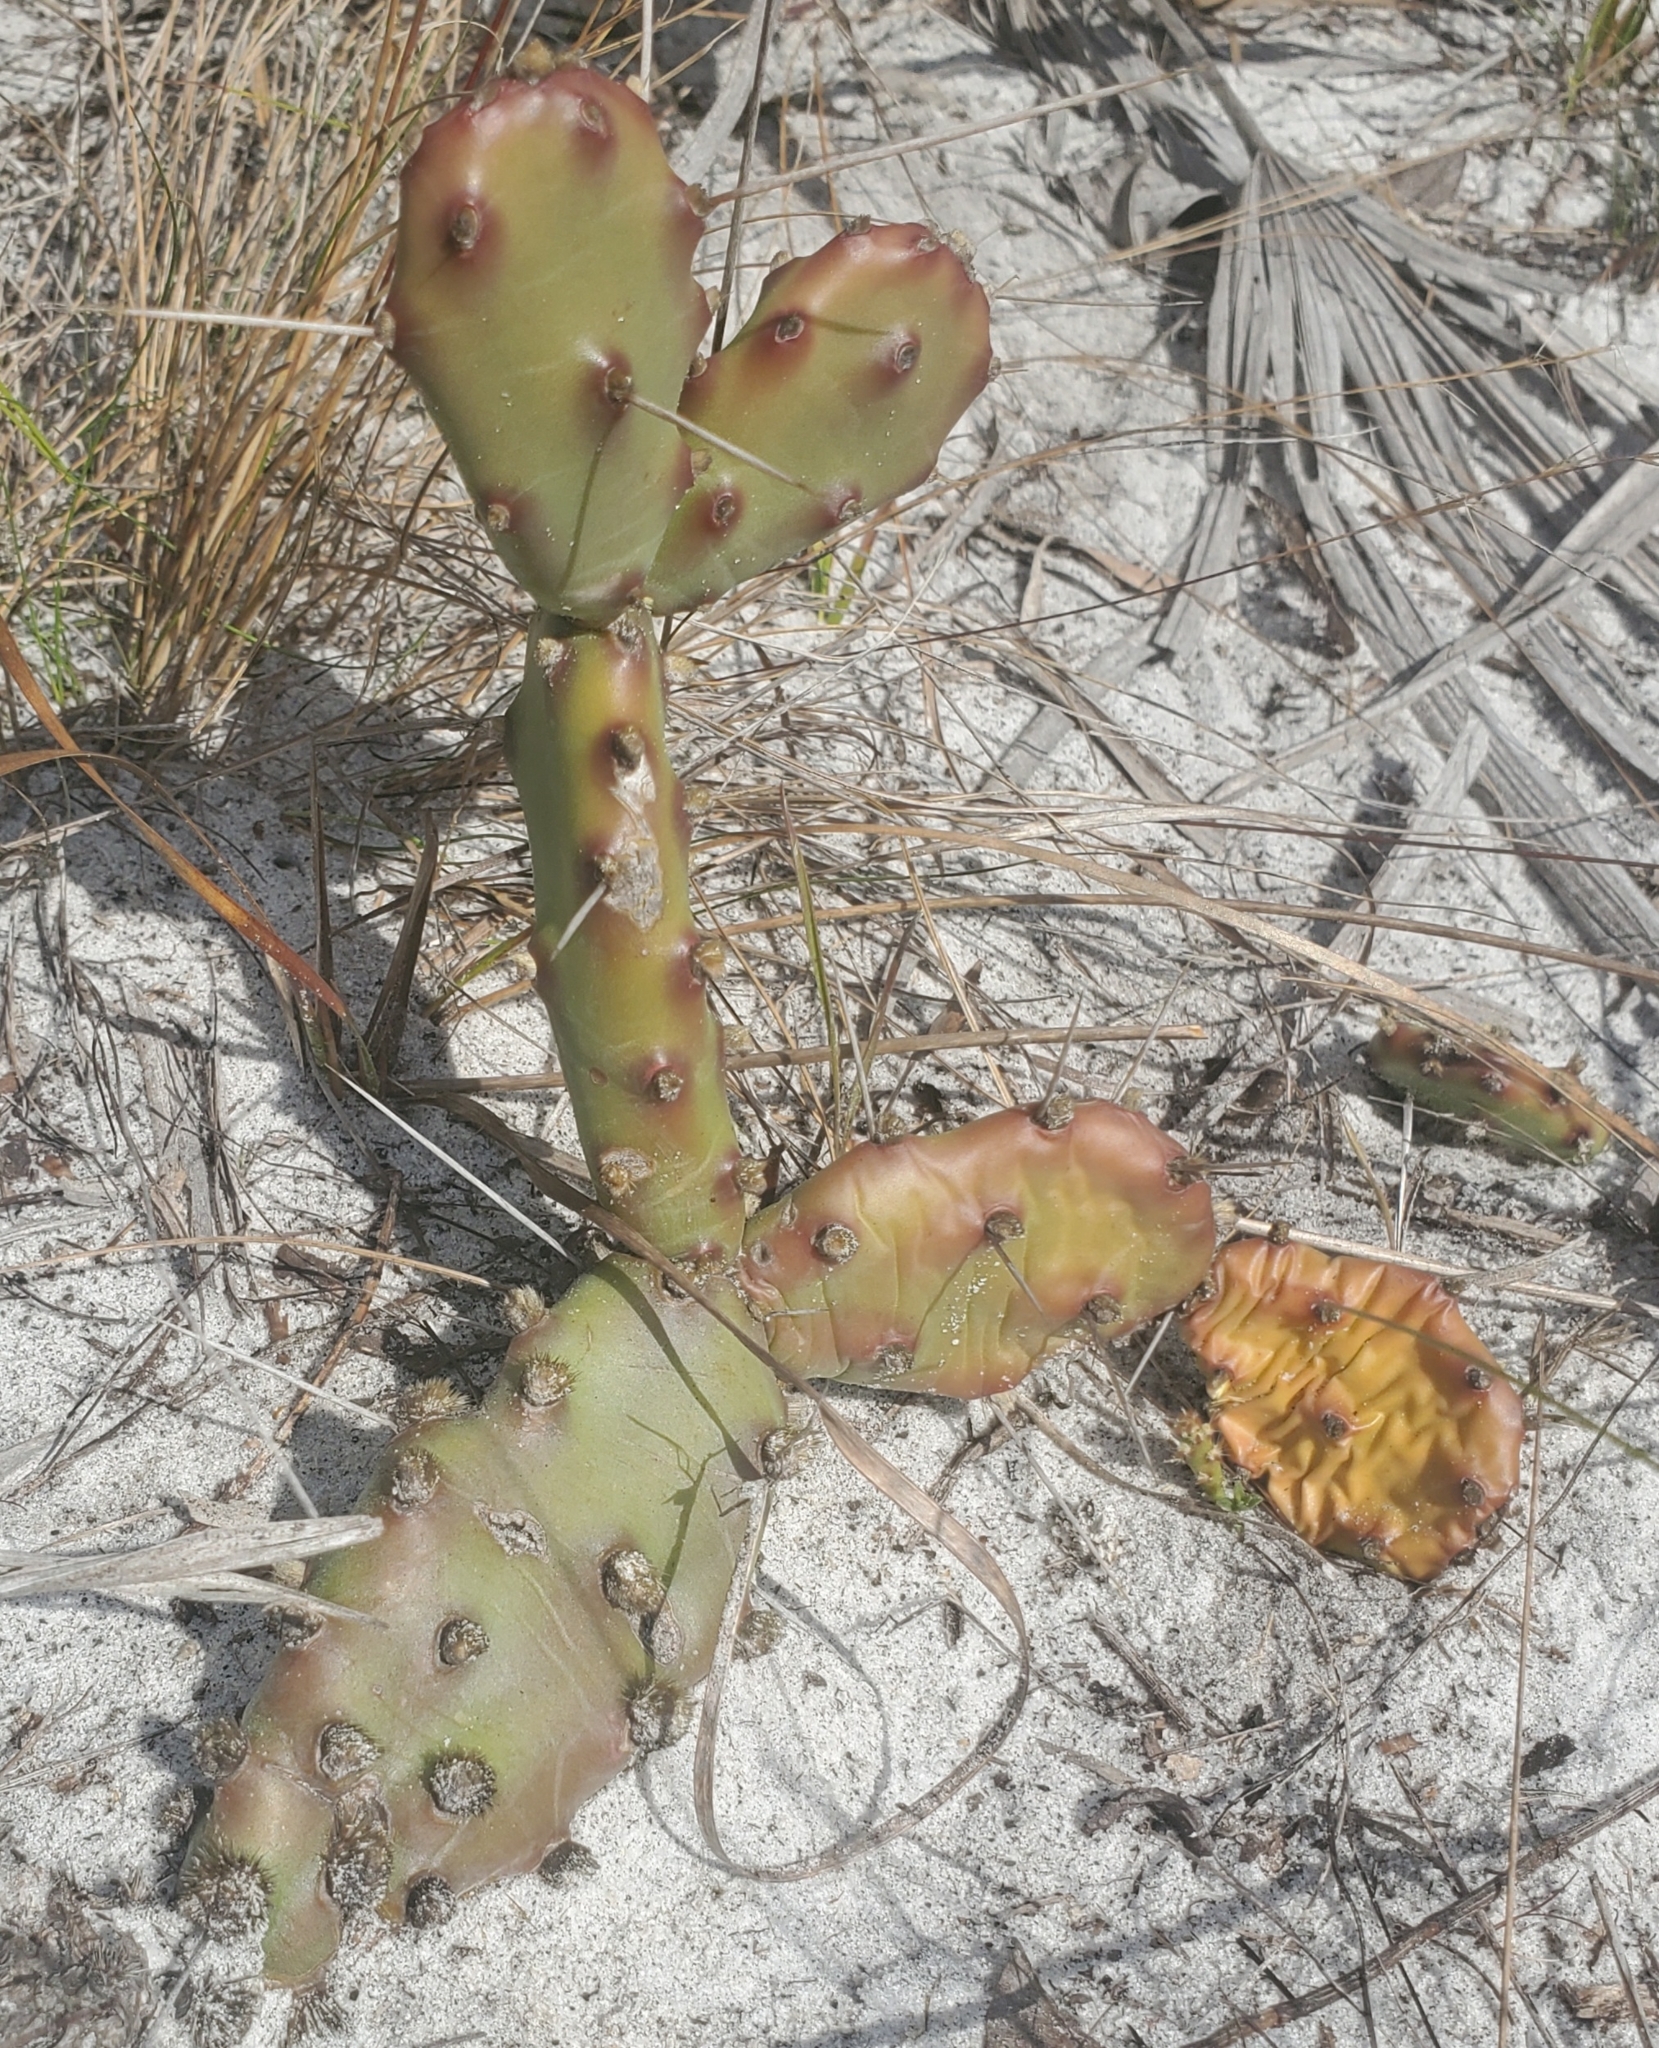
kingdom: Plantae
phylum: Tracheophyta
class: Magnoliopsida
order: Caryophyllales
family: Cactaceae
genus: Opuntia
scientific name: Opuntia austrina
